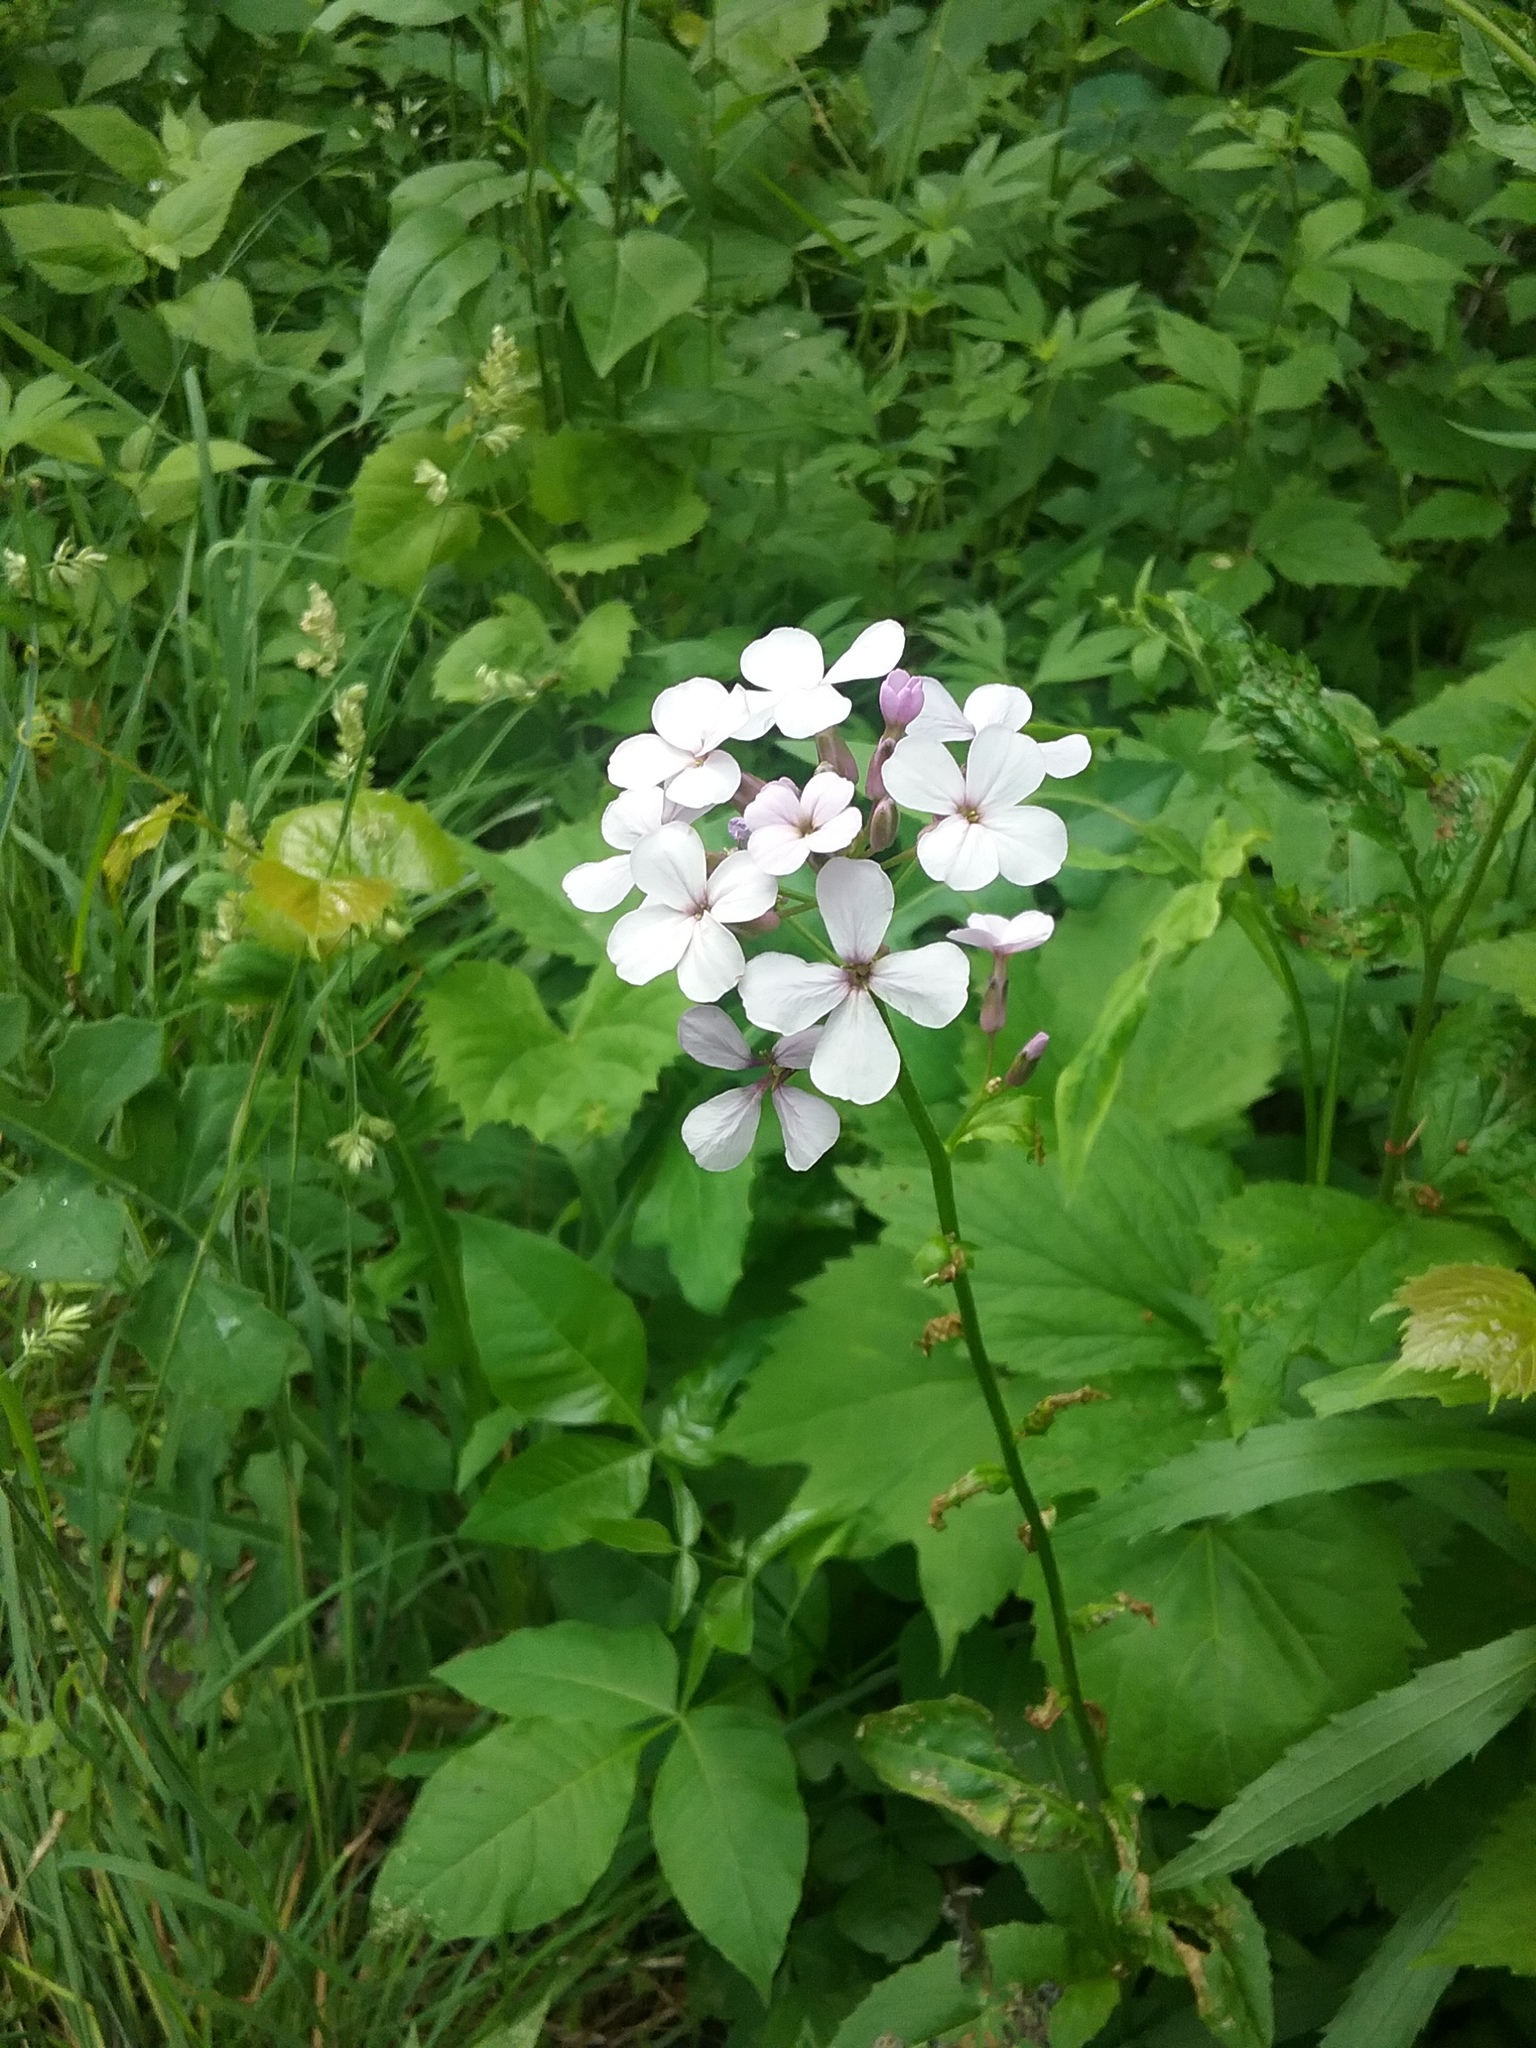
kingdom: Plantae
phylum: Tracheophyta
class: Magnoliopsida
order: Brassicales
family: Brassicaceae
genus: Hesperis
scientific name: Hesperis matronalis
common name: Dame's-violet
